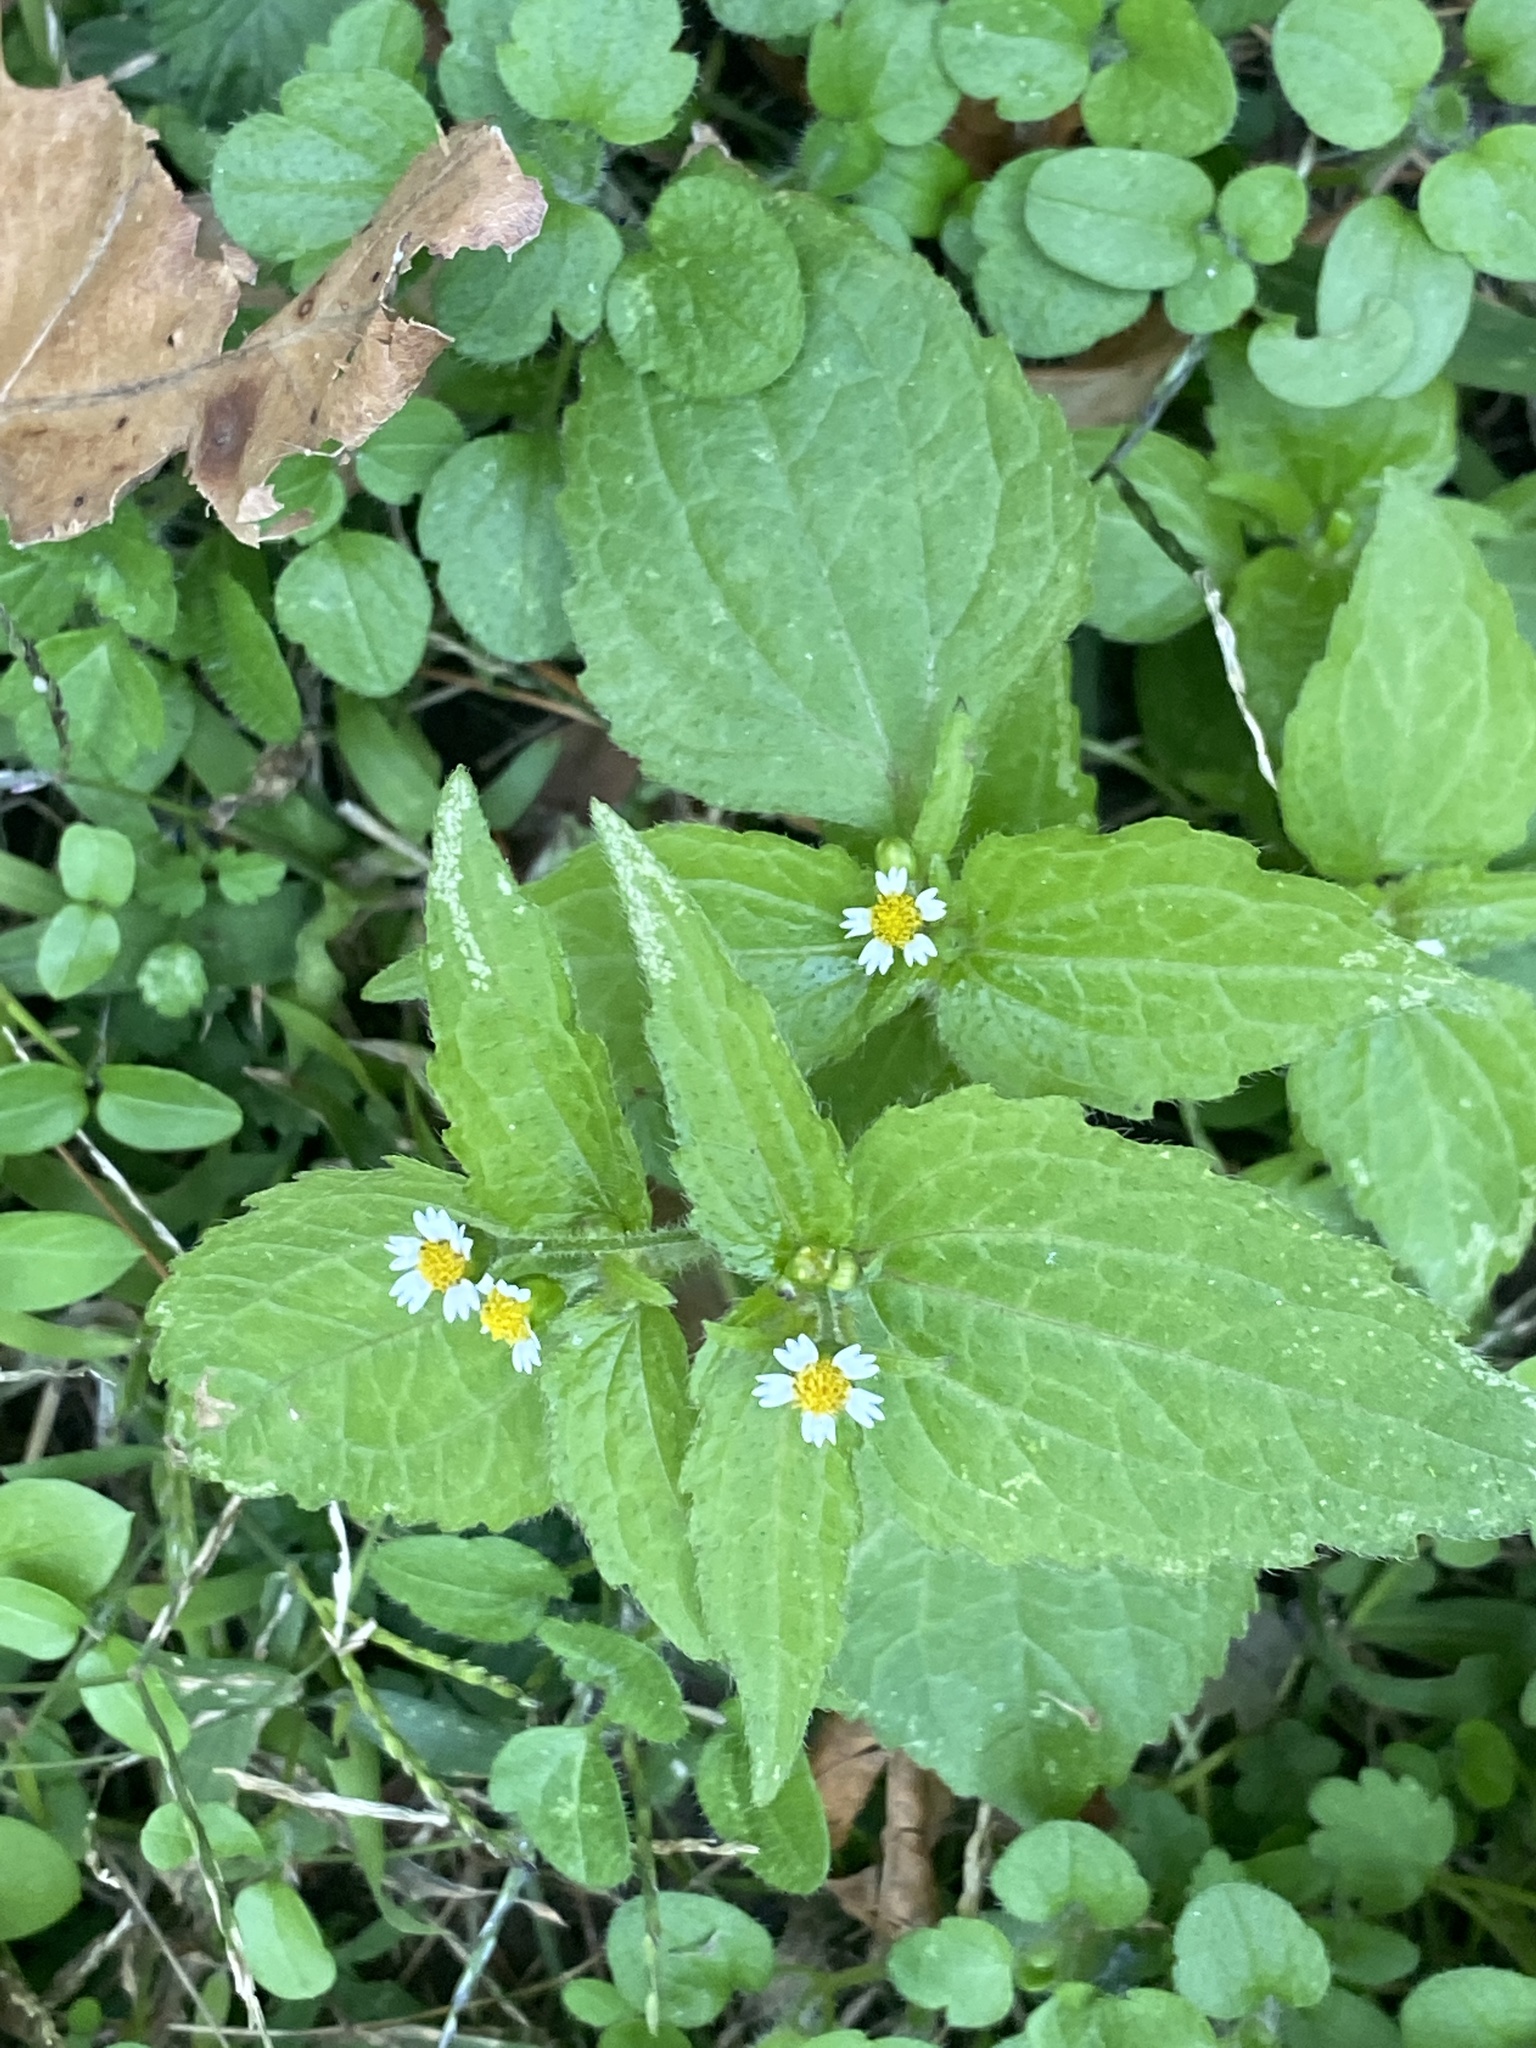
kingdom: Plantae
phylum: Tracheophyta
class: Magnoliopsida
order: Asterales
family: Asteraceae
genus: Galinsoga
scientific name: Galinsoga quadriradiata
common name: Shaggy soldier
